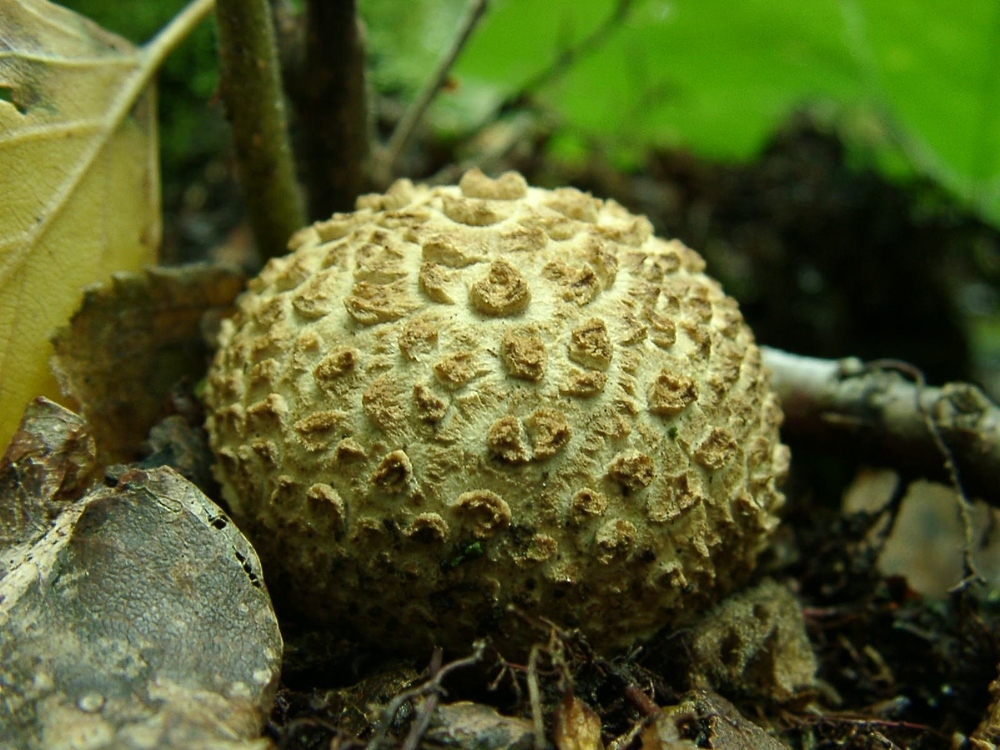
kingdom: Fungi
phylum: Basidiomycota
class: Agaricomycetes
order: Boletales
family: Sclerodermataceae
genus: Scleroderma
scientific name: Scleroderma citrinum
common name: Common earthball
